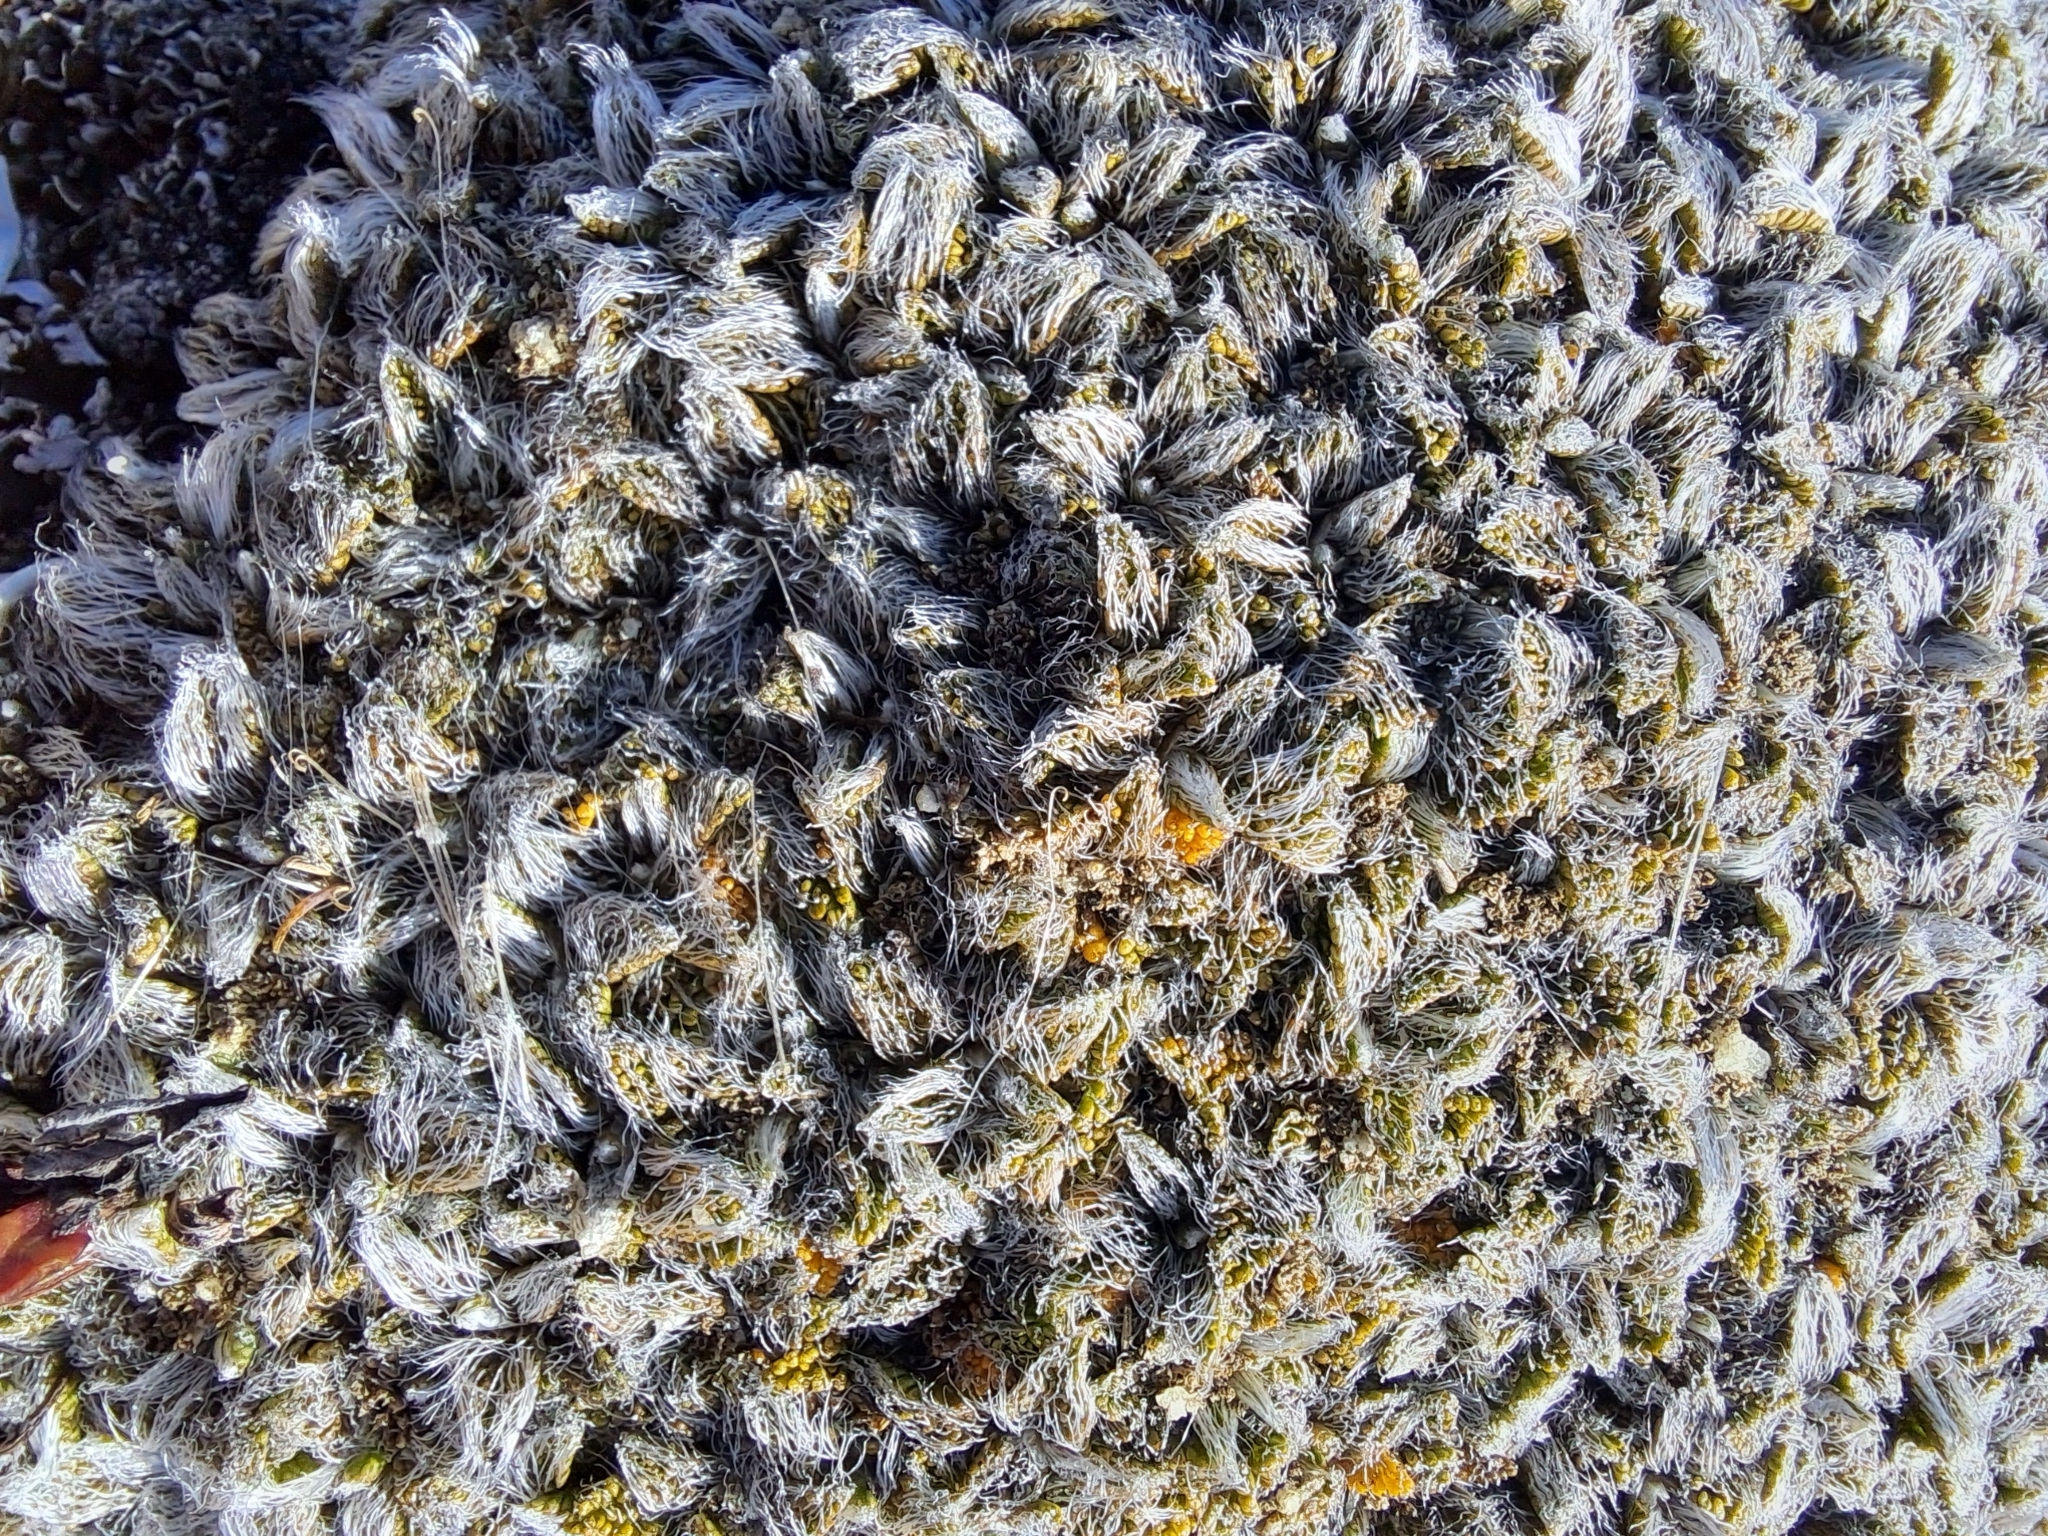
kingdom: Plantae
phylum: Tracheophyta
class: Magnoliopsida
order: Apiales
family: Apiaceae
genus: Anisotome
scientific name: Anisotome imbricata
